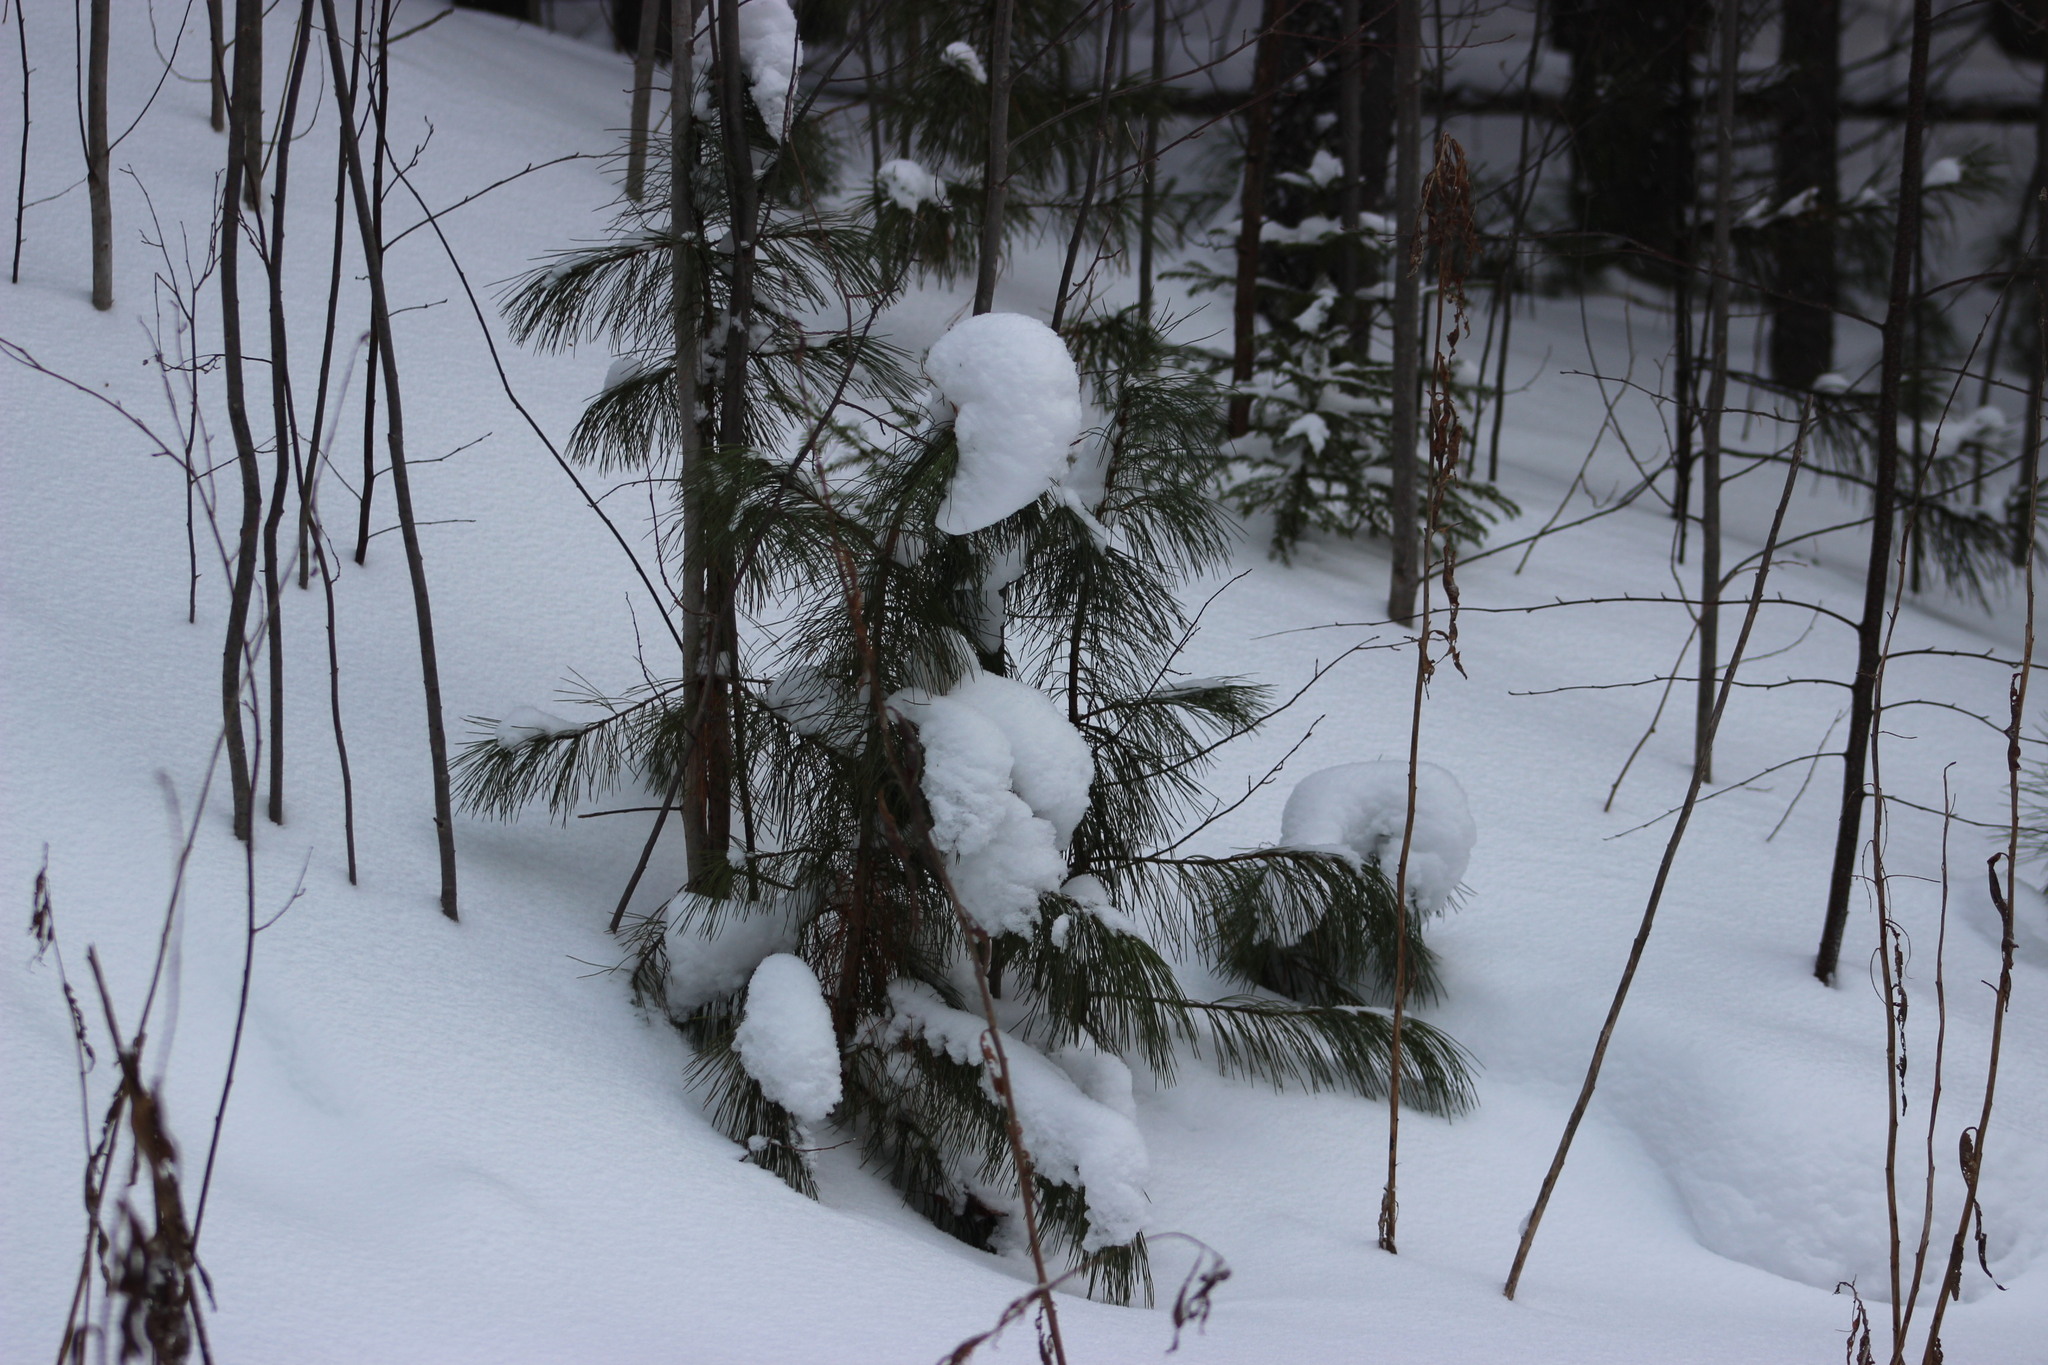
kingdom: Plantae
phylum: Tracheophyta
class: Pinopsida
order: Pinales
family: Pinaceae
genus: Pinus
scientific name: Pinus sibirica
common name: Siberian pine
